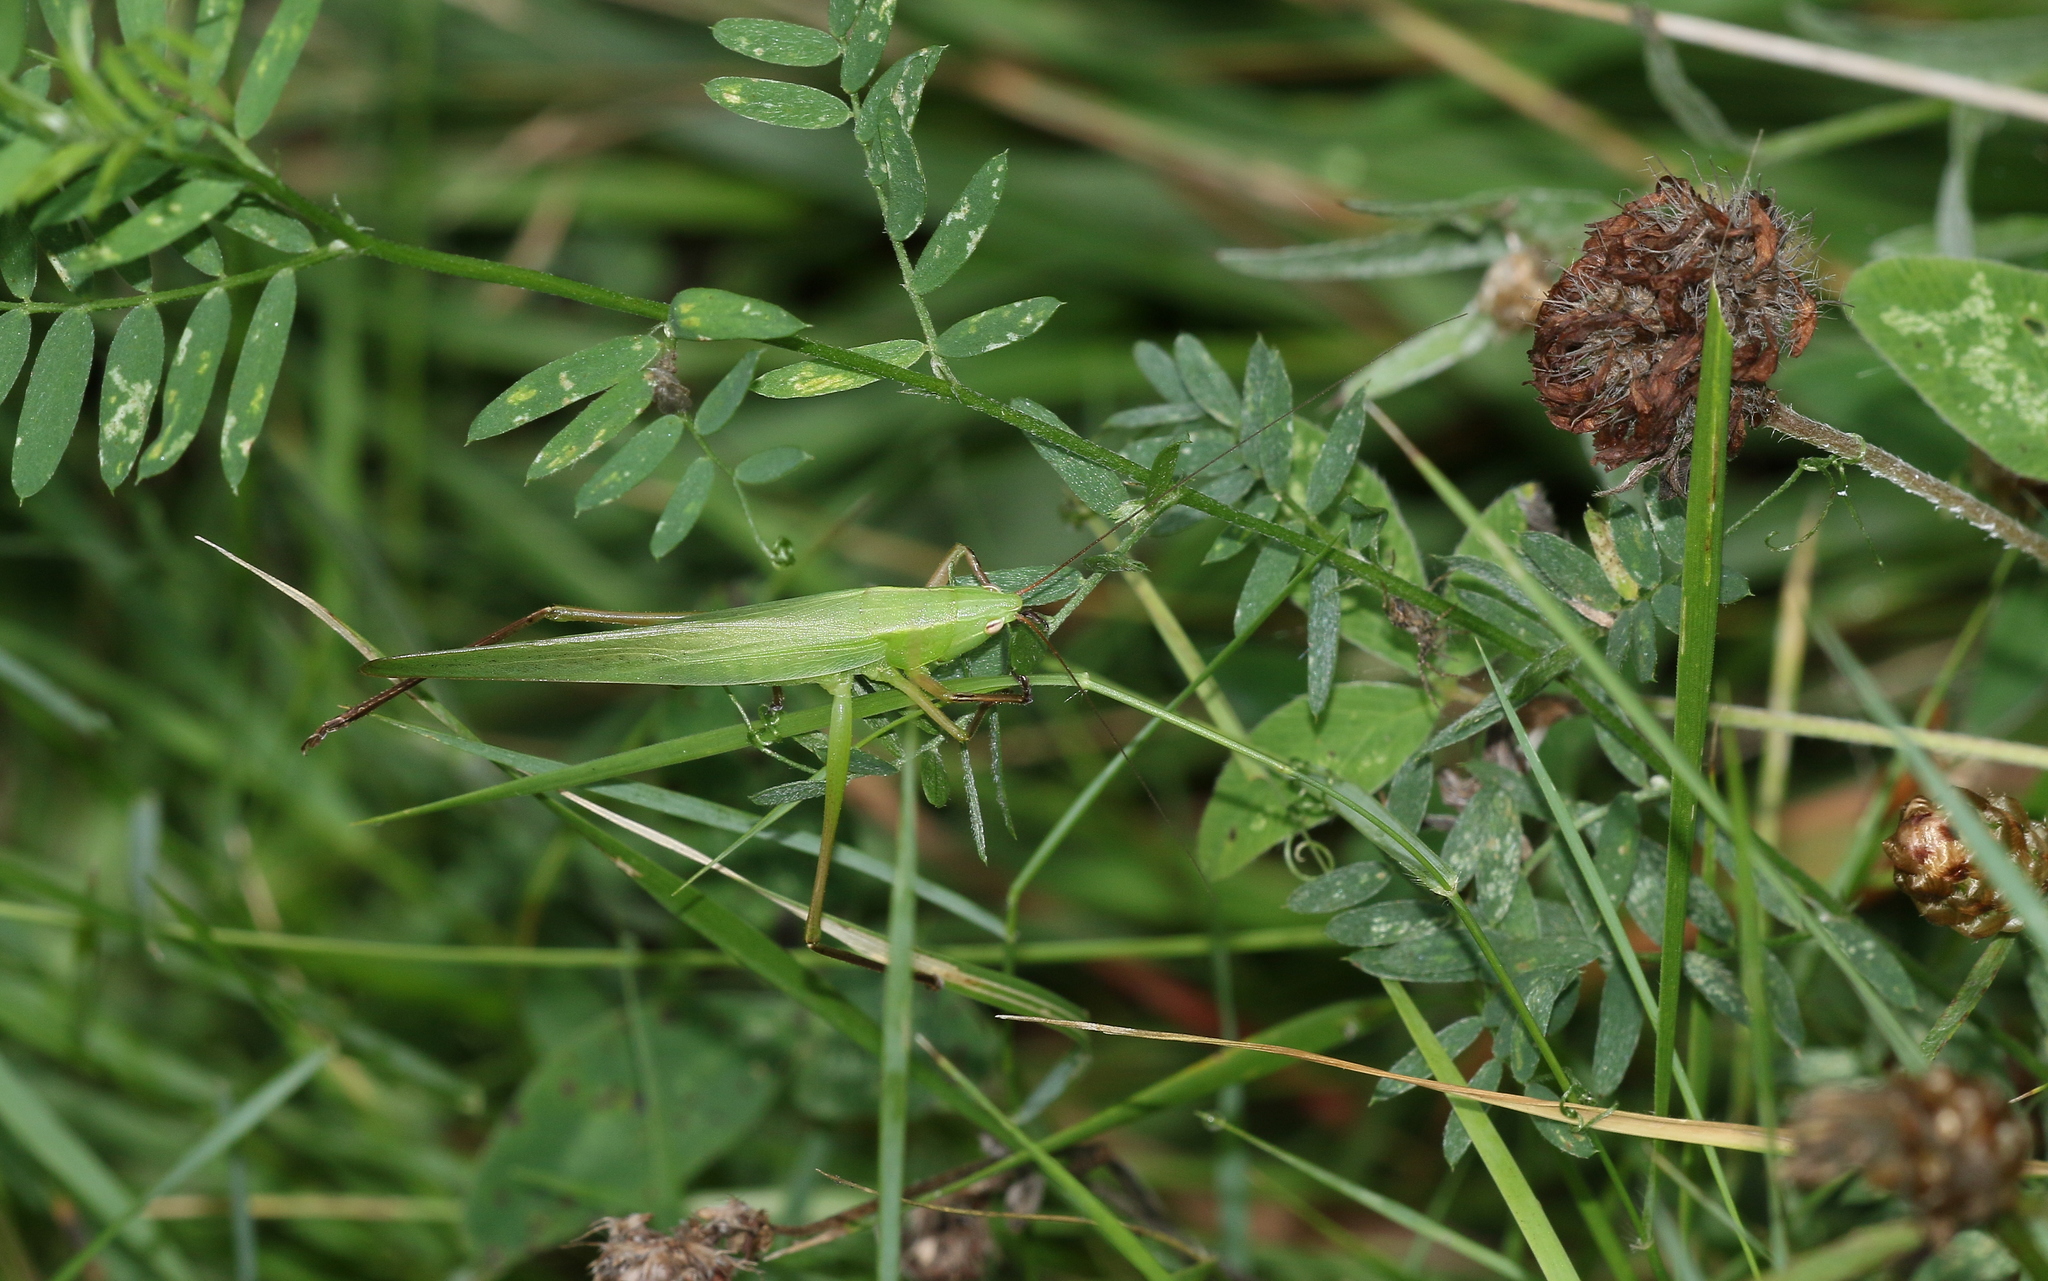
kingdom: Animalia
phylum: Arthropoda
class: Insecta
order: Orthoptera
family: Tettigoniidae
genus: Ruspolia
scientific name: Ruspolia nitidula
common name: Large conehead
